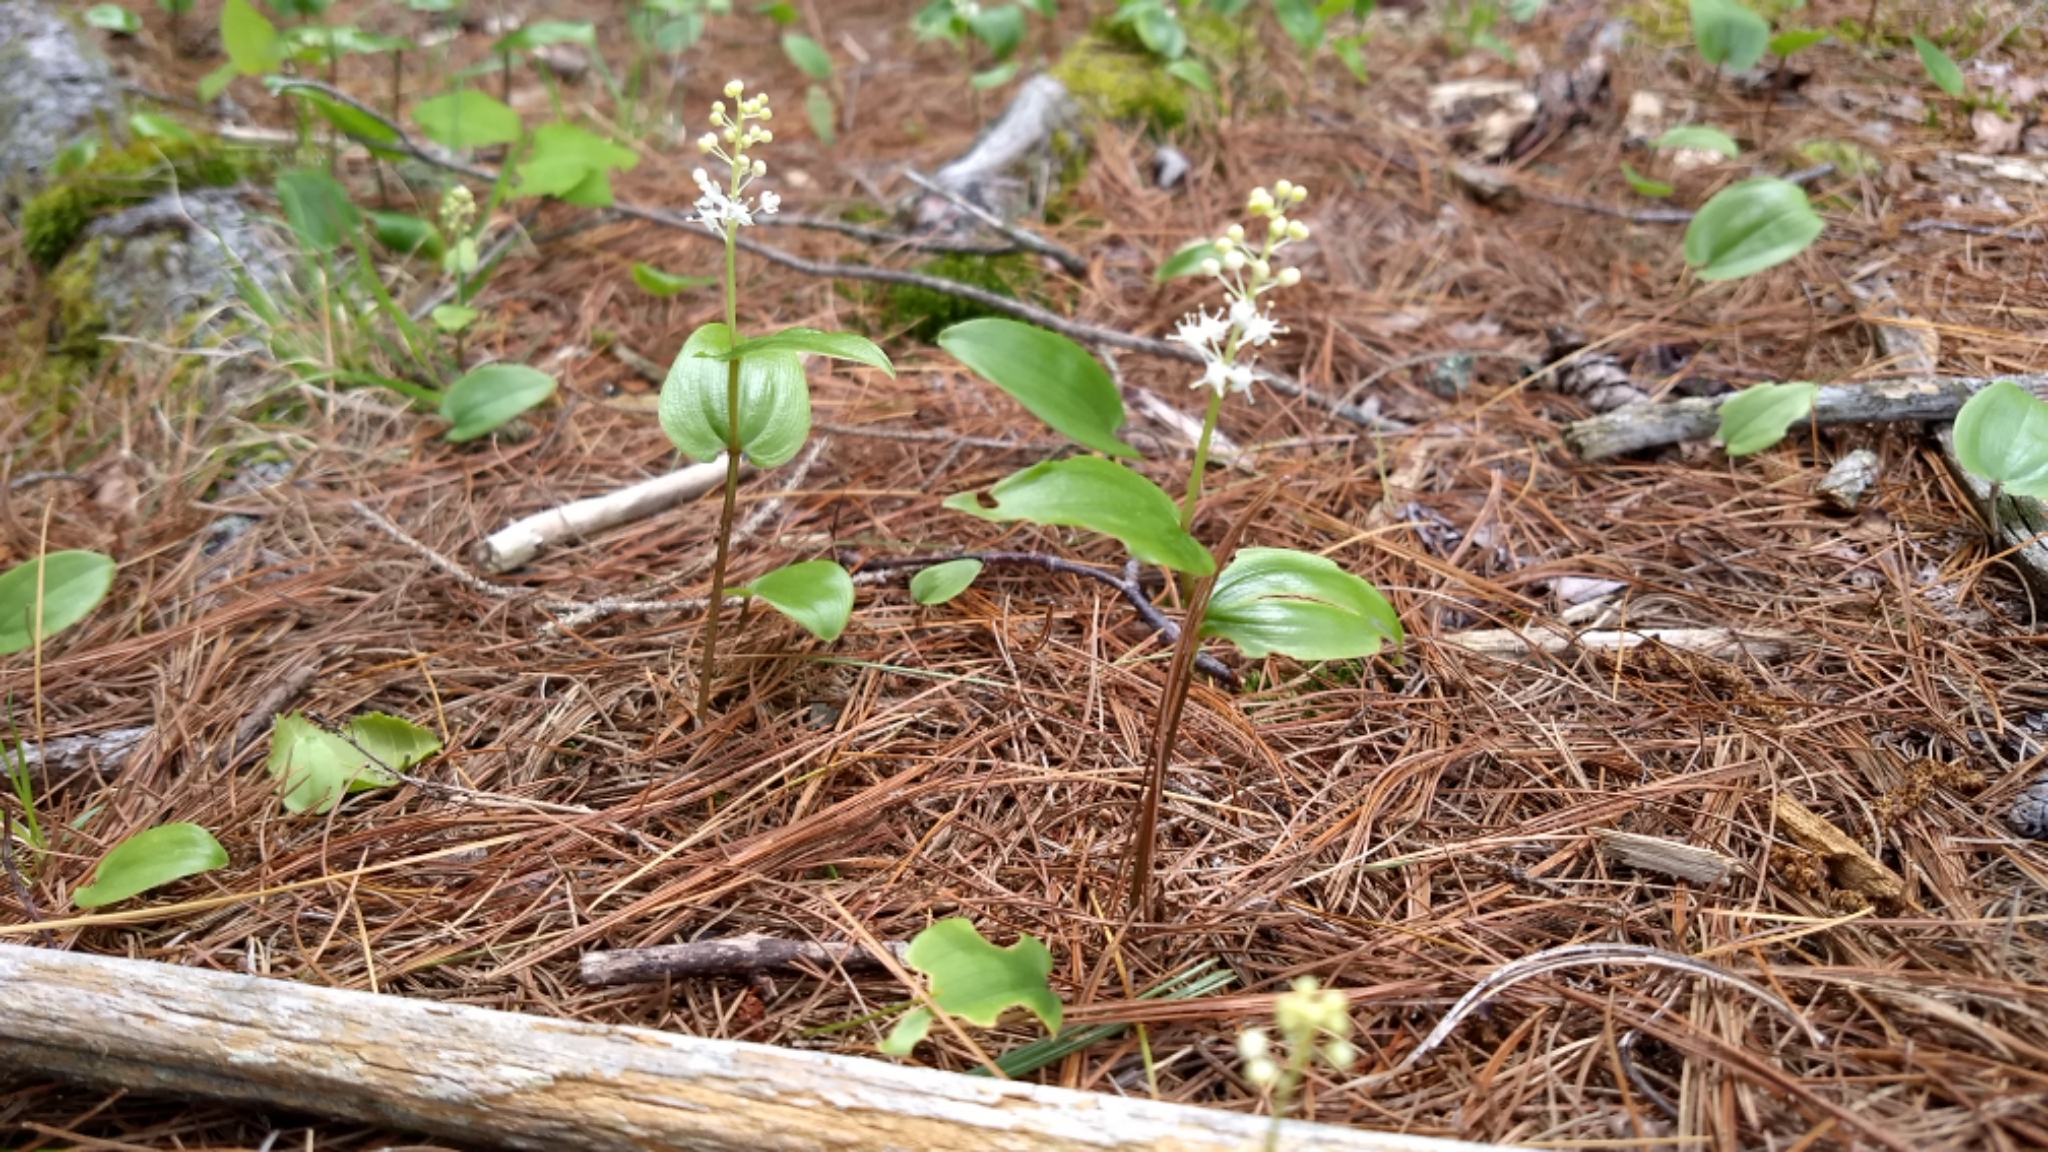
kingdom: Plantae
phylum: Tracheophyta
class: Liliopsida
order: Asparagales
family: Asparagaceae
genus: Maianthemum
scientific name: Maianthemum canadense
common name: False lily-of-the-valley
